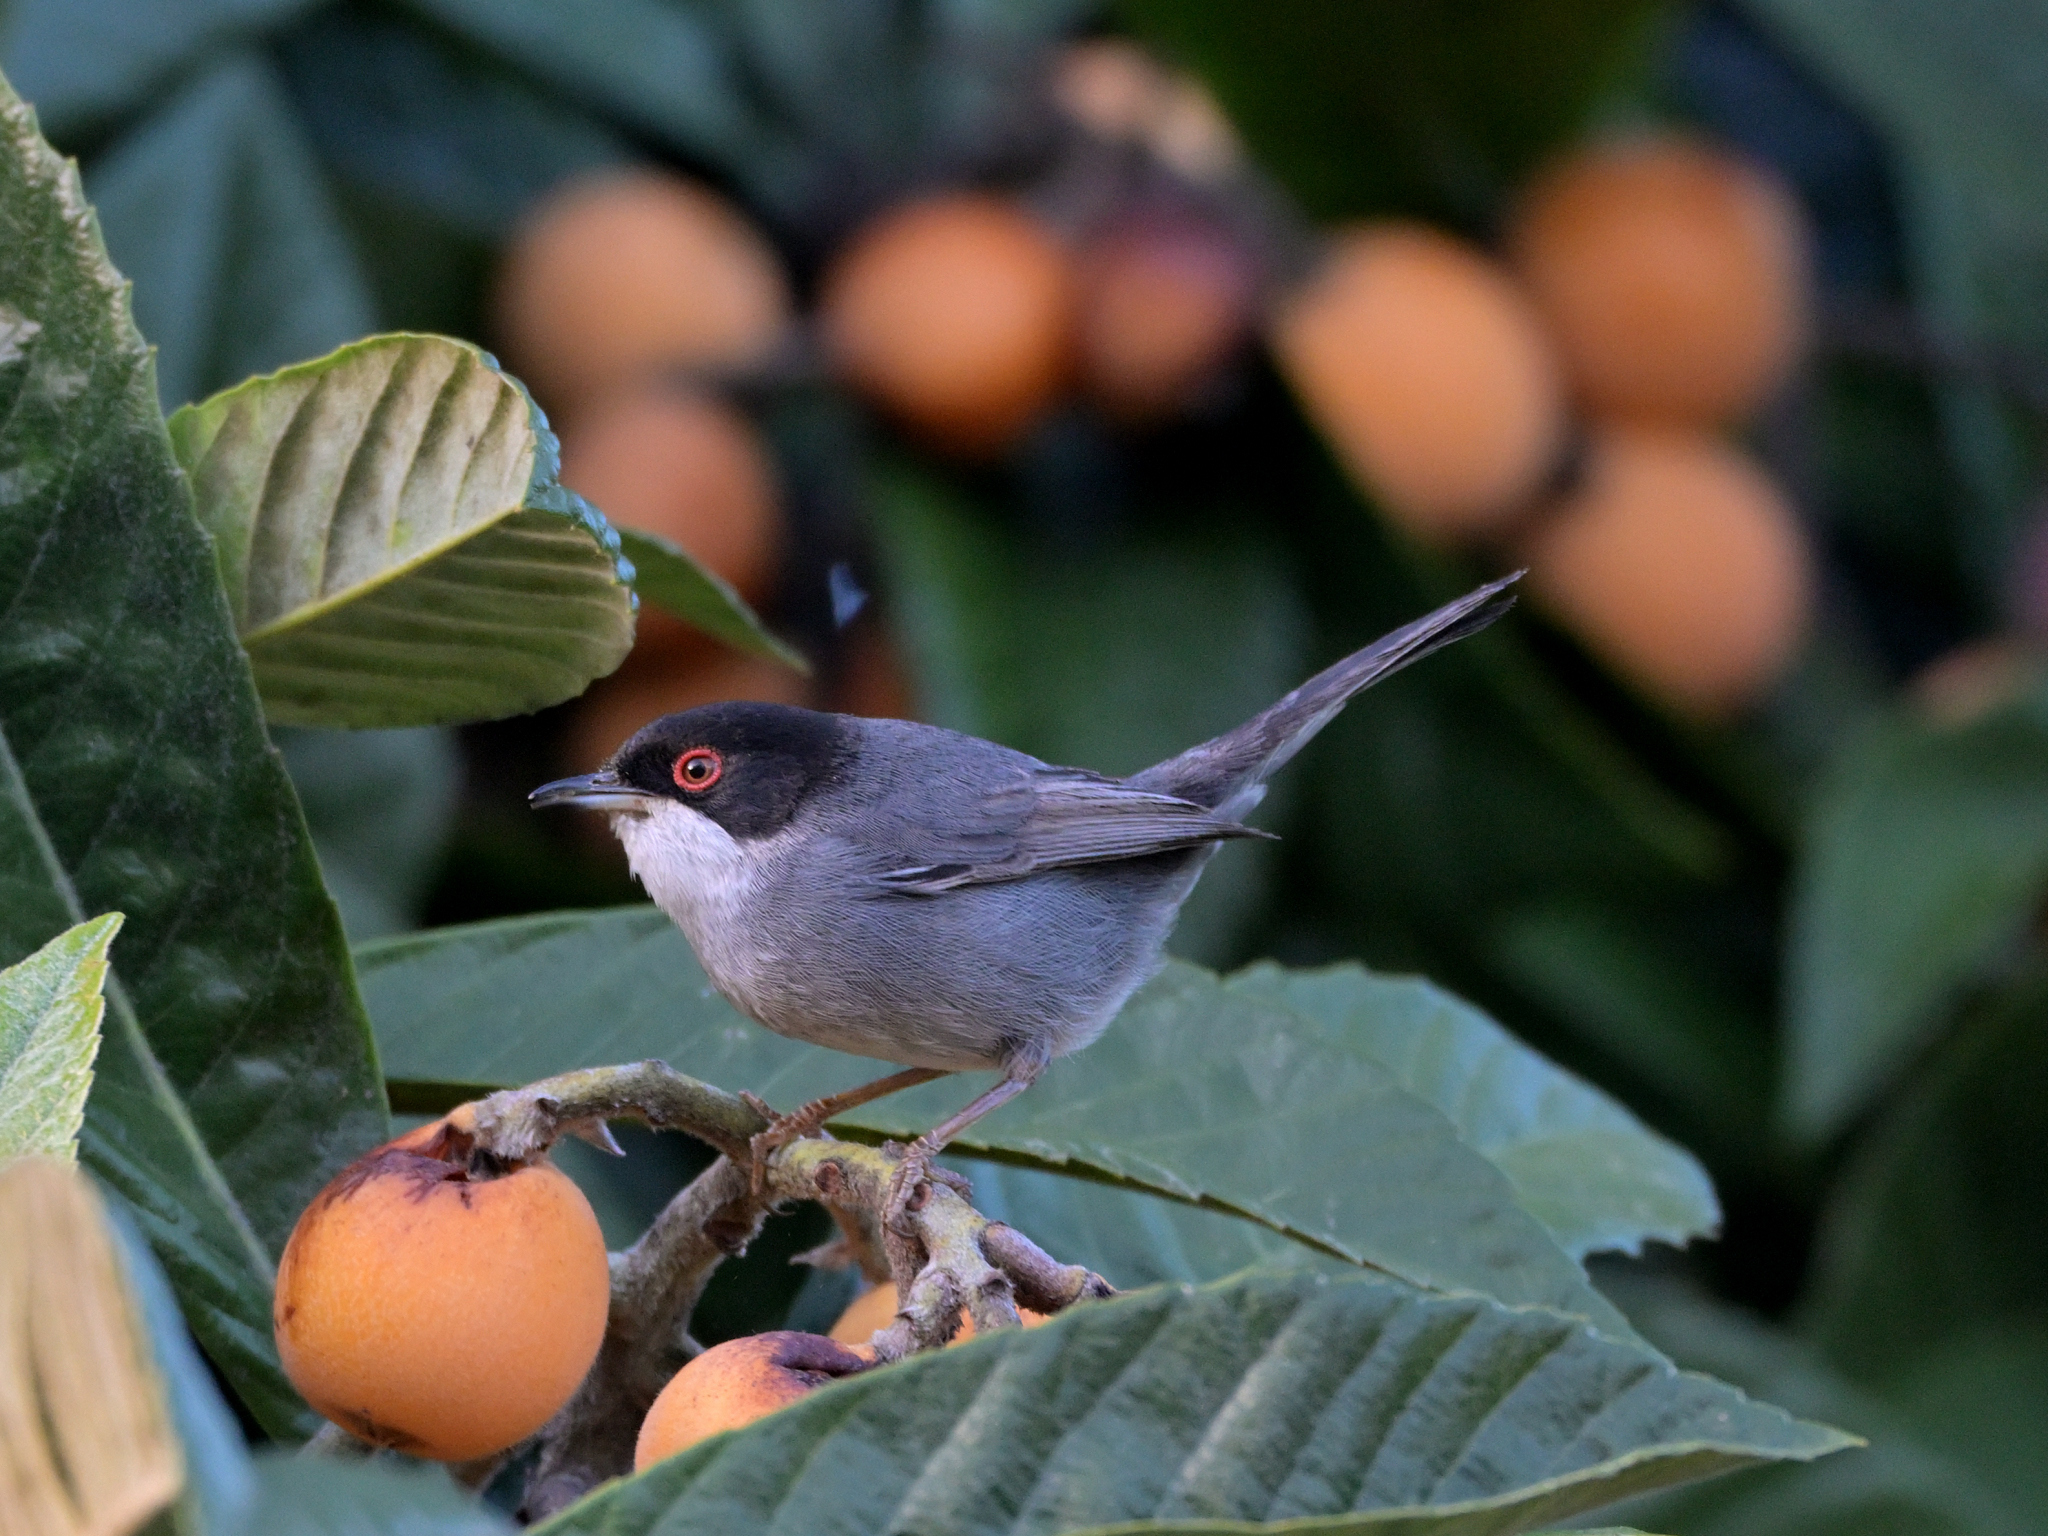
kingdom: Animalia
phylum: Chordata
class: Aves
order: Passeriformes
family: Sylviidae
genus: Curruca
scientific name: Curruca melanocephala
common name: Sardinian warbler
